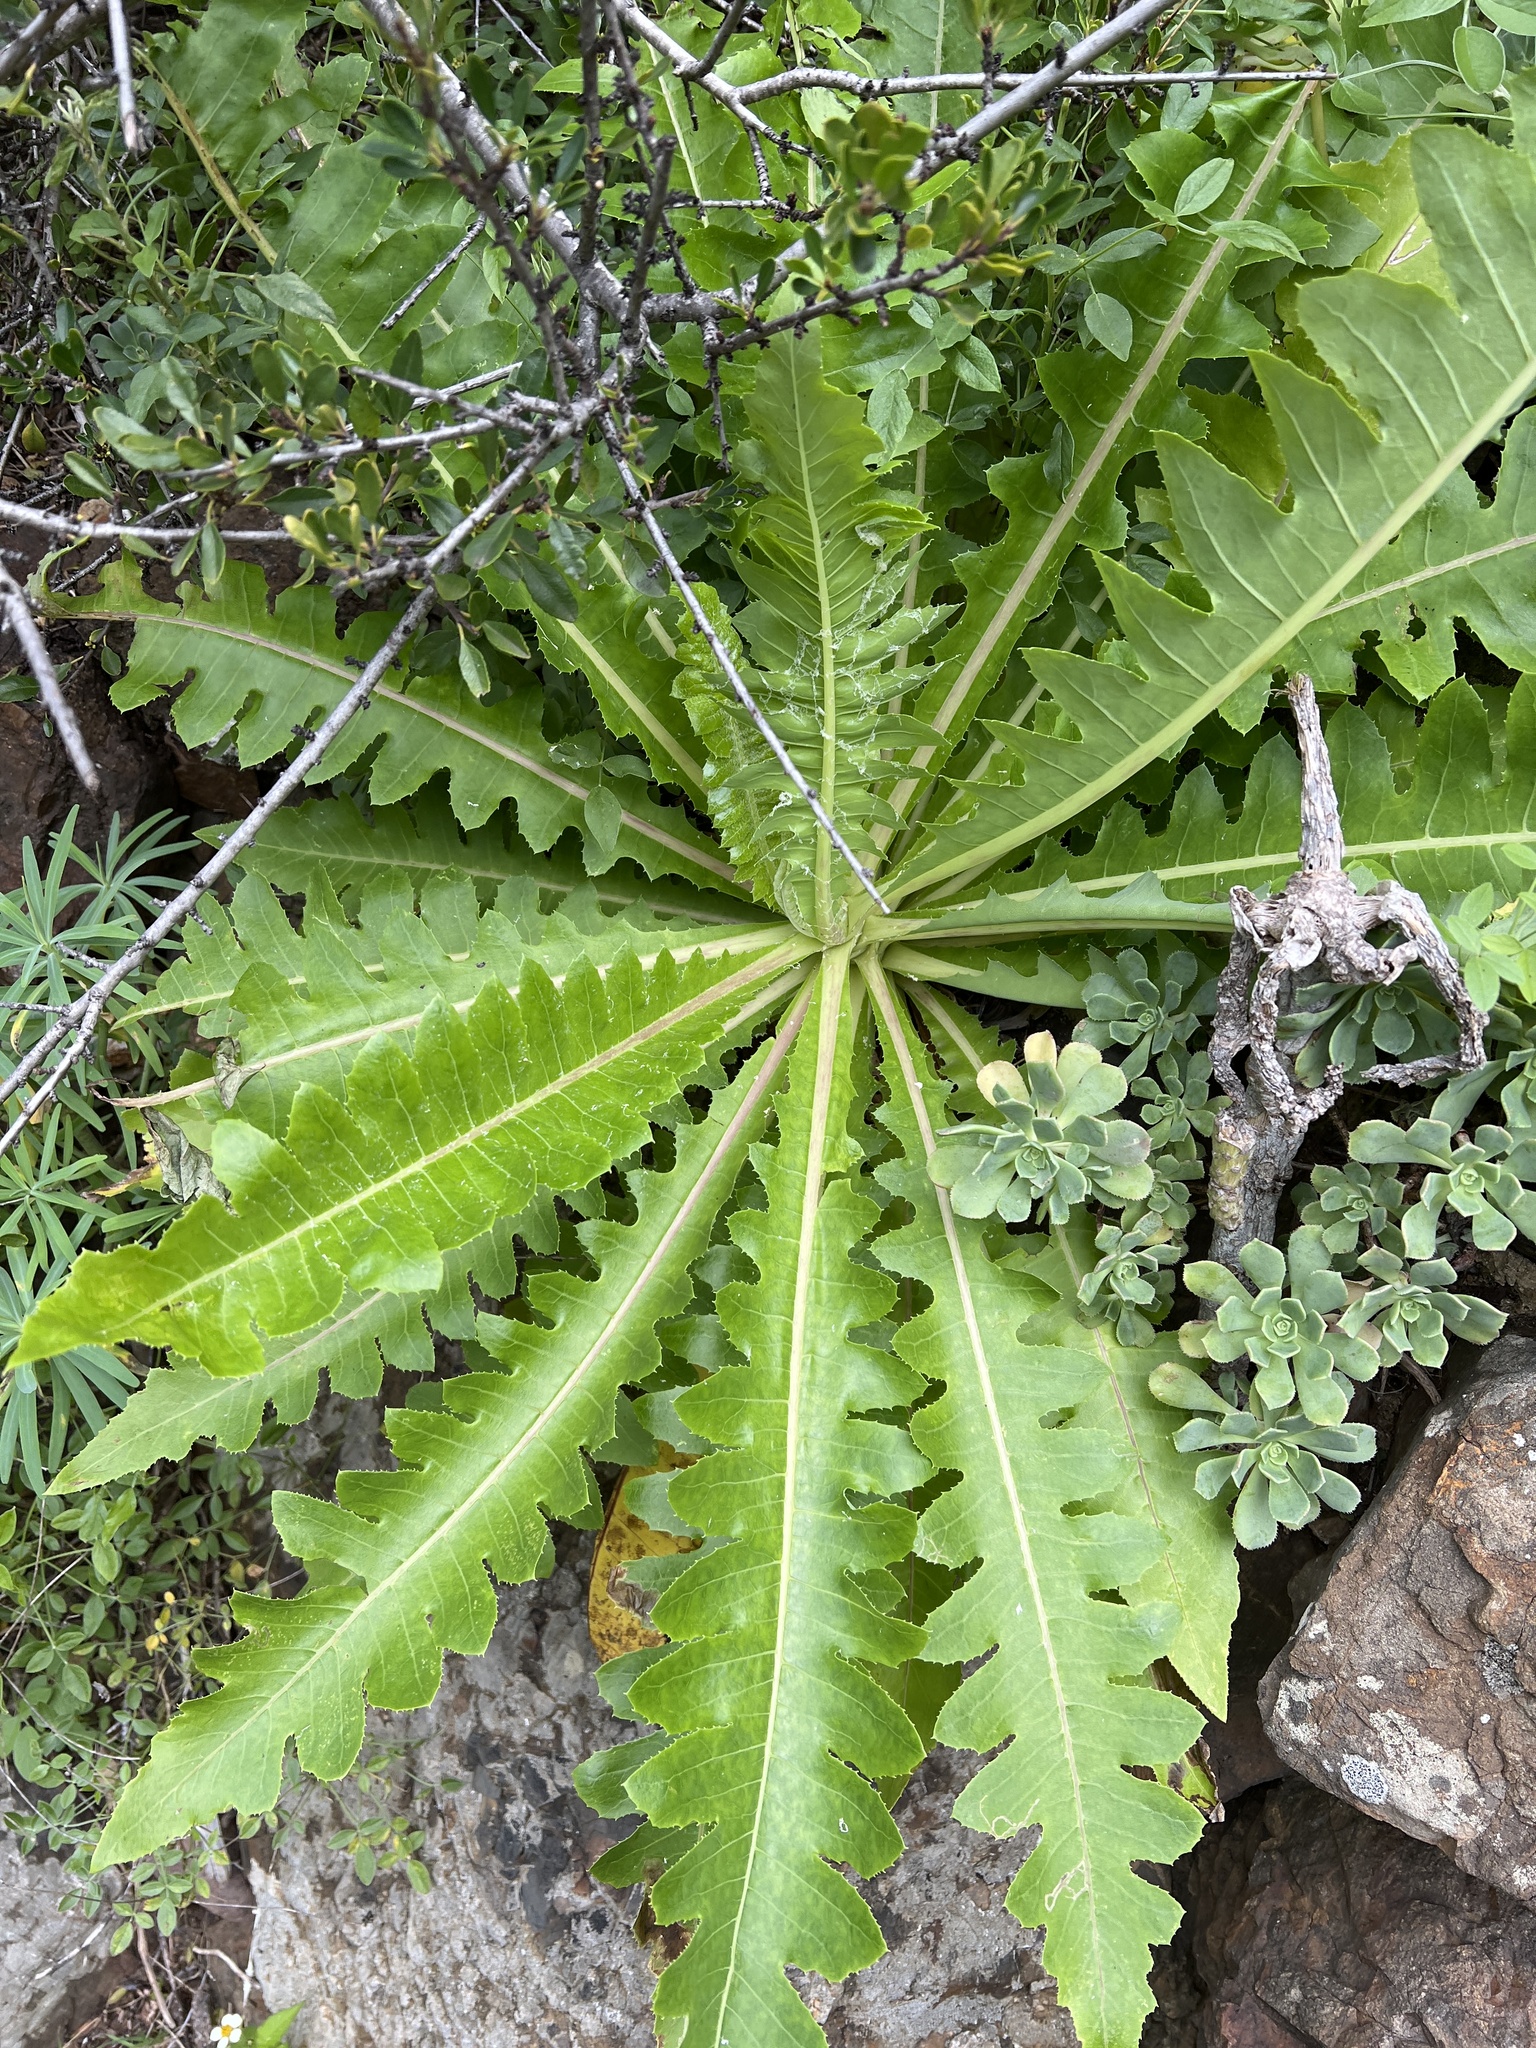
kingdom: Plantae
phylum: Tracheophyta
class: Magnoliopsida
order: Asterales
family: Asteraceae
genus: Sonchus
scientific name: Sonchus hierrensis
